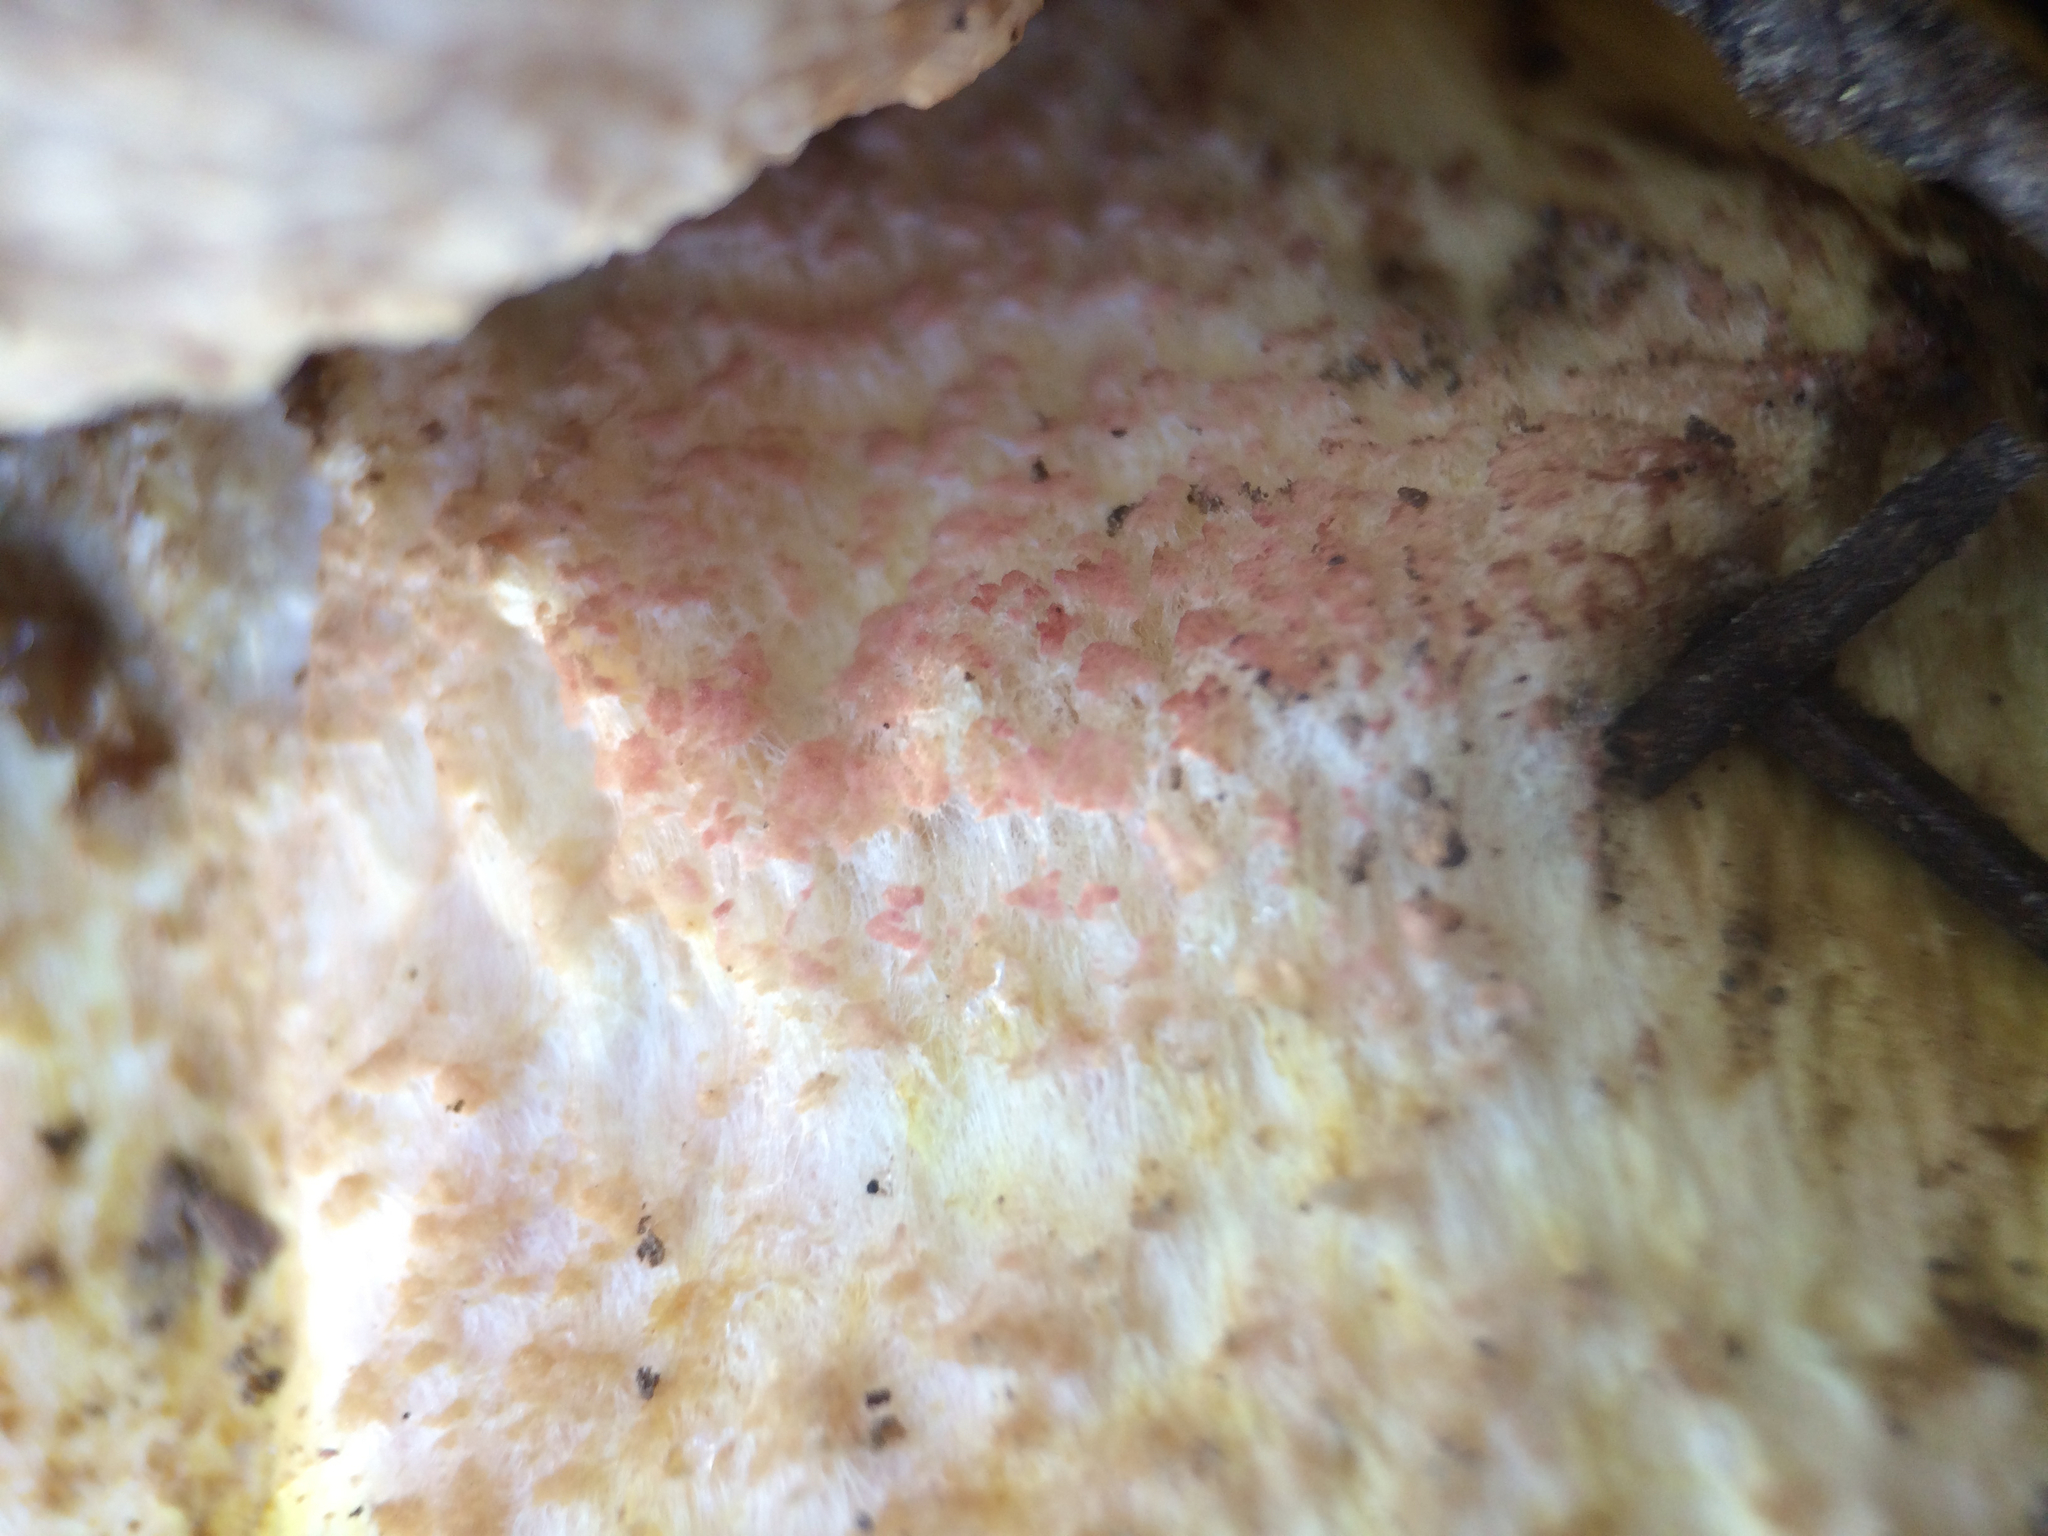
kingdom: Fungi
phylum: Basidiomycota
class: Agaricomycetes
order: Boletales
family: Boletaceae
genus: Harrya
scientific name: Harrya chromipes
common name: Chrome-footed bolete
